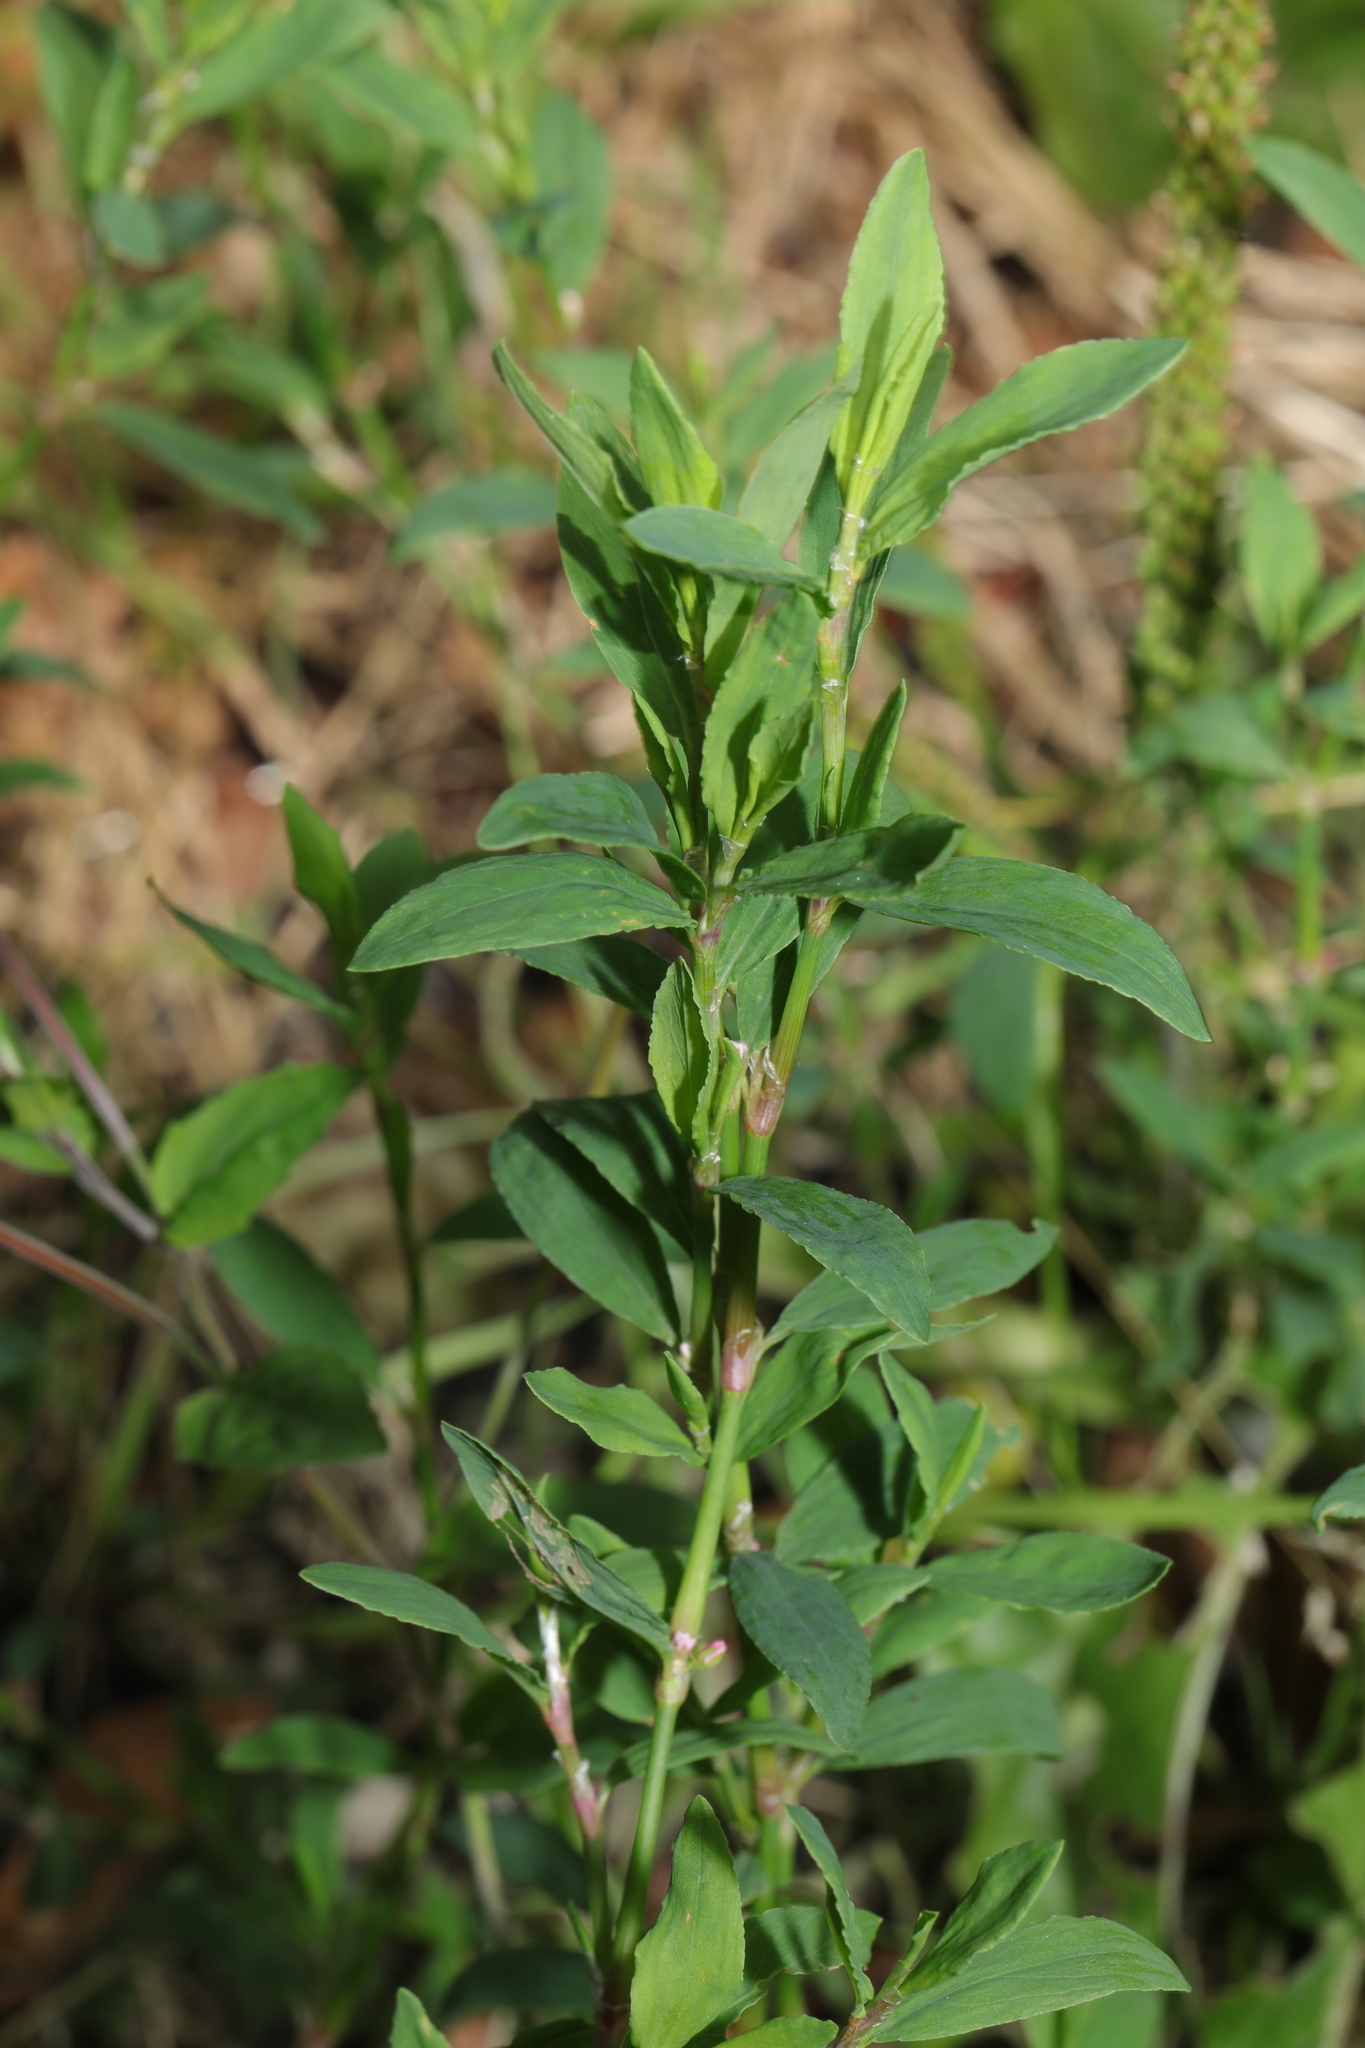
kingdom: Plantae
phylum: Tracheophyta
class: Magnoliopsida
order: Caryophyllales
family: Polygonaceae
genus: Polygonum
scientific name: Polygonum aviculare
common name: Prostrate knotweed
